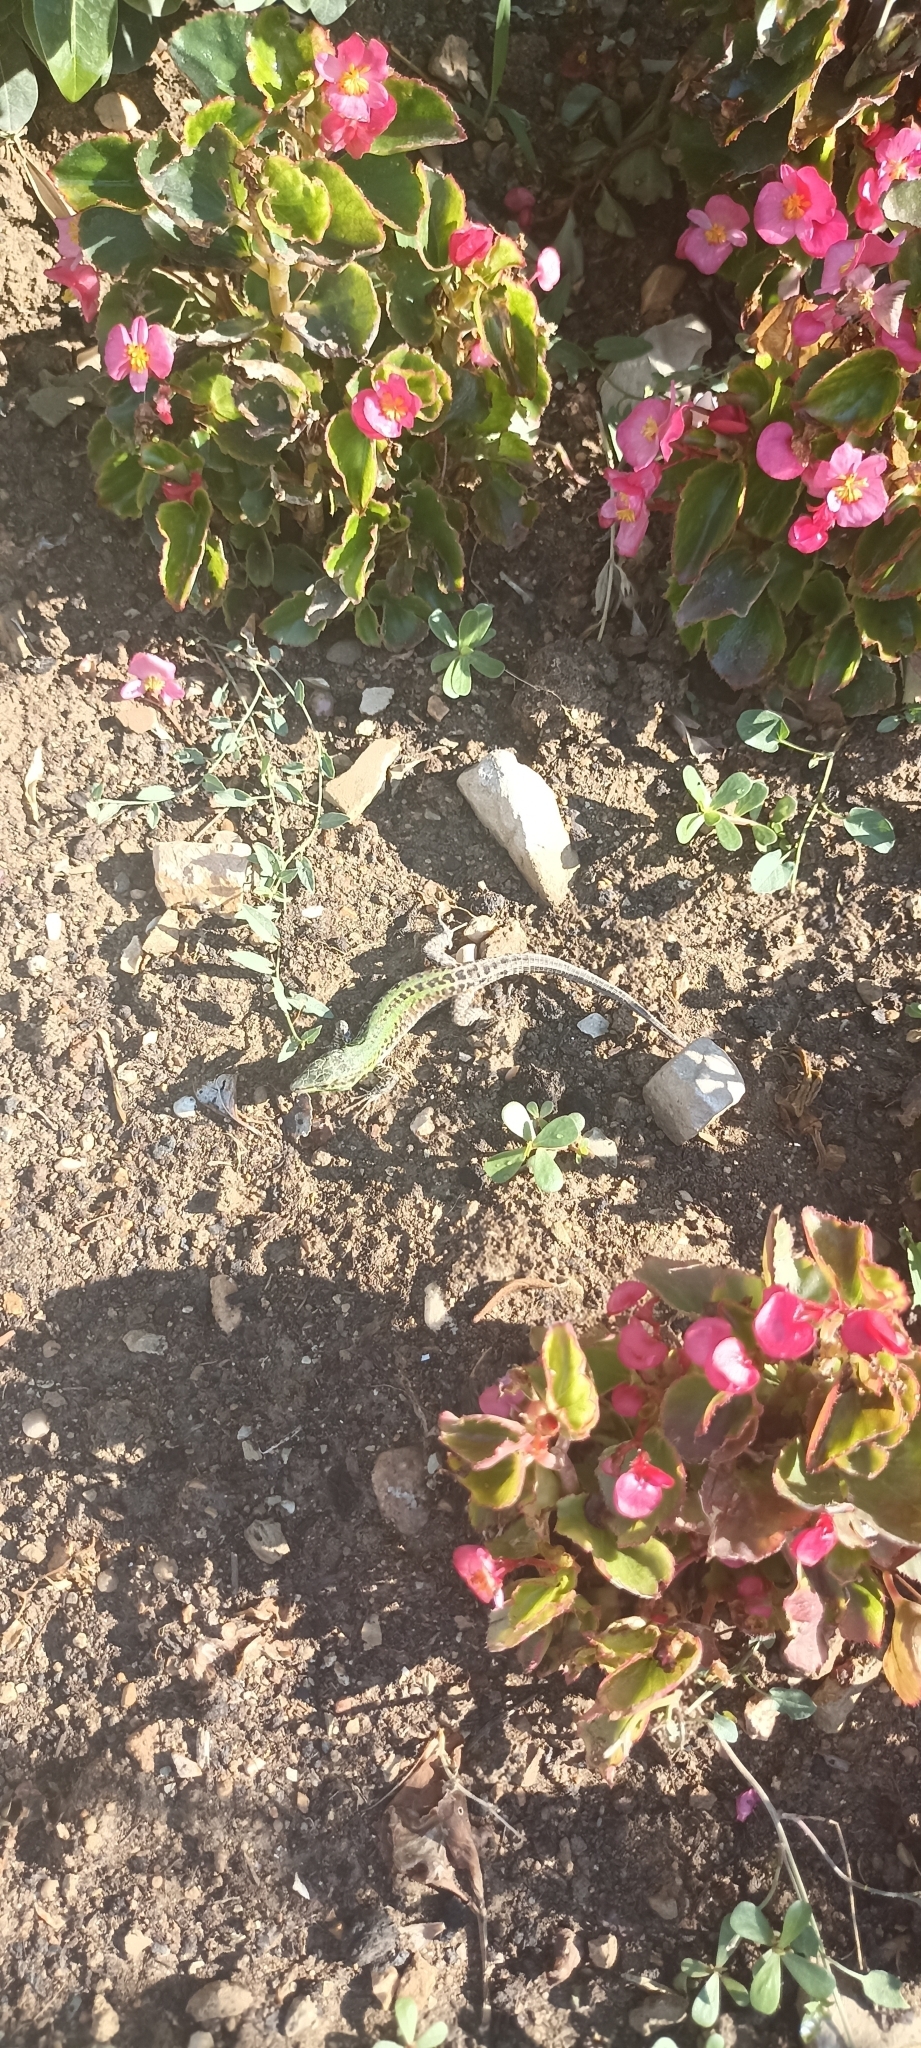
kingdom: Animalia
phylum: Chordata
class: Squamata
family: Lacertidae
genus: Podarcis
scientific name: Podarcis siculus
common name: Italian wall lizard
